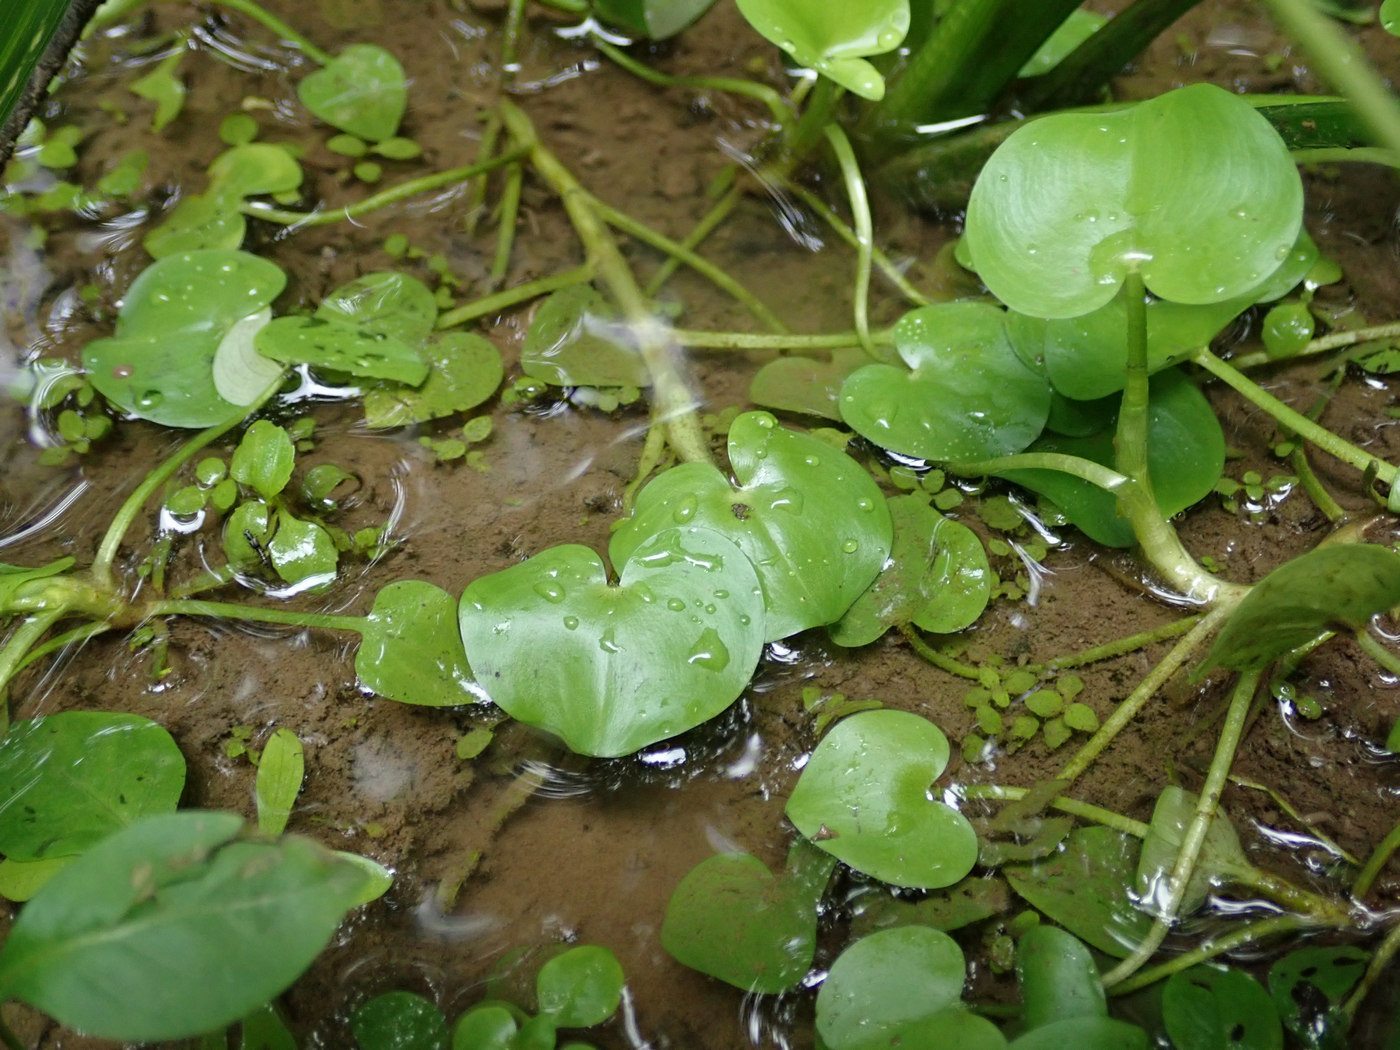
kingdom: Plantae
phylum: Tracheophyta
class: Liliopsida
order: Commelinales
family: Pontederiaceae
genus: Heteranthera
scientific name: Heteranthera reniformis
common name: Kidneyleaf mudplantain
